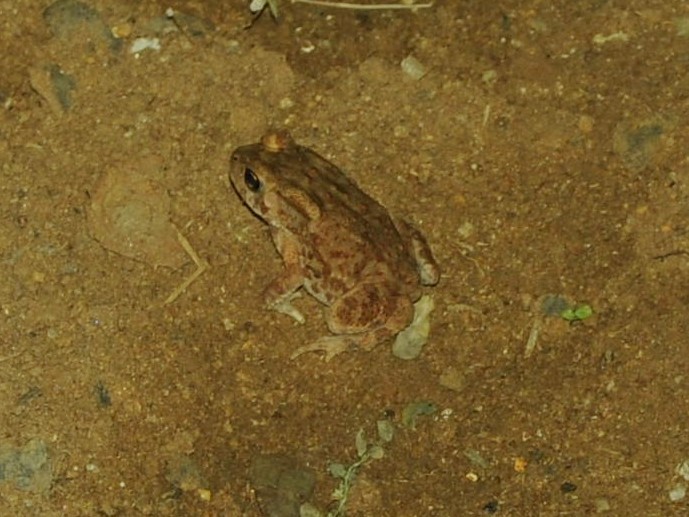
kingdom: Animalia
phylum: Chordata
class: Amphibia
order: Anura
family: Bufonidae
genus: Duttaphrynus
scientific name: Duttaphrynus melanostictus
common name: Common sunda toad
